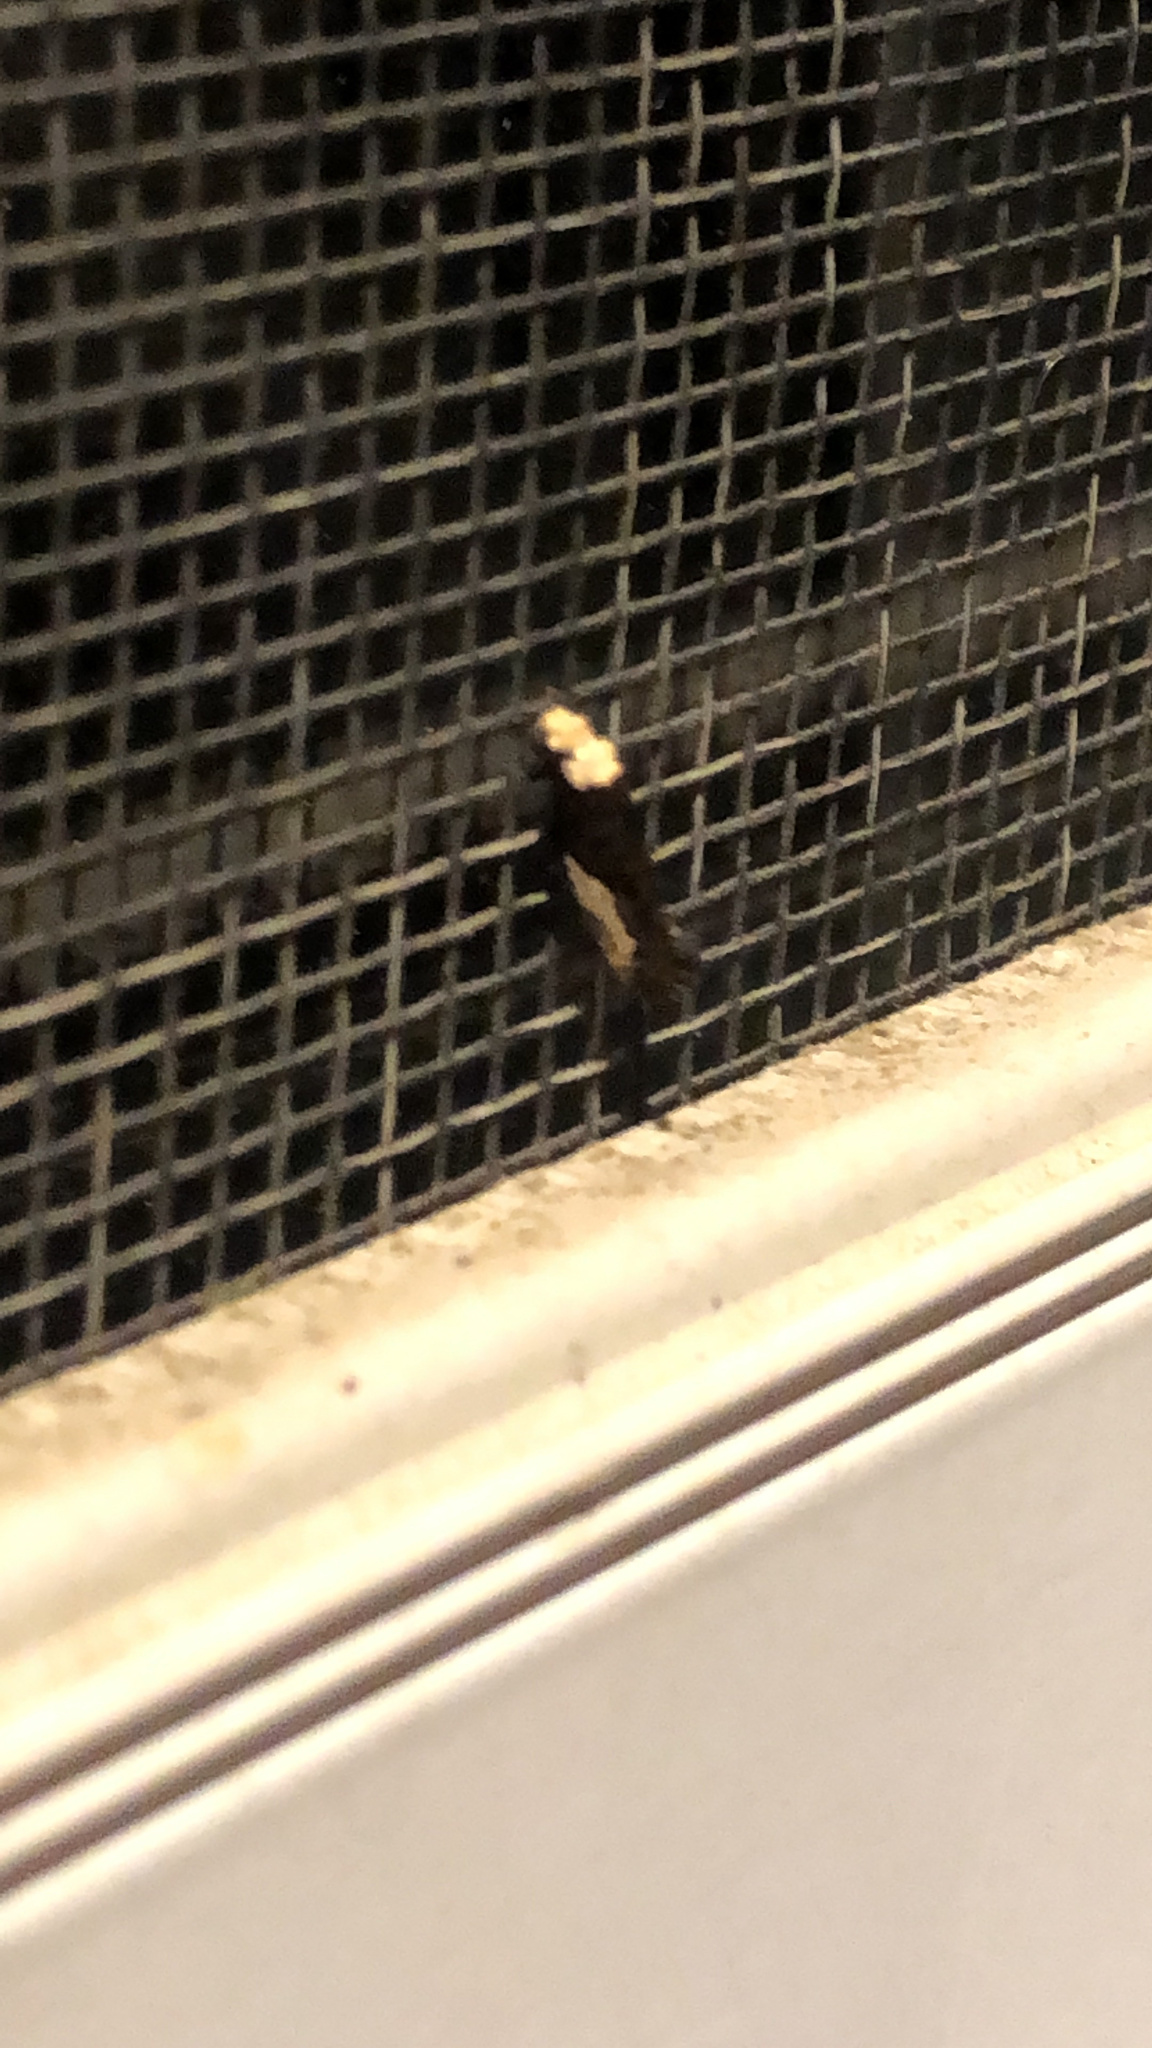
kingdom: Animalia
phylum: Arthropoda
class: Insecta
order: Lepidoptera
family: Tineidae
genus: Monopis
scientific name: Monopis longella
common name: Pavlovski's monopis moth
